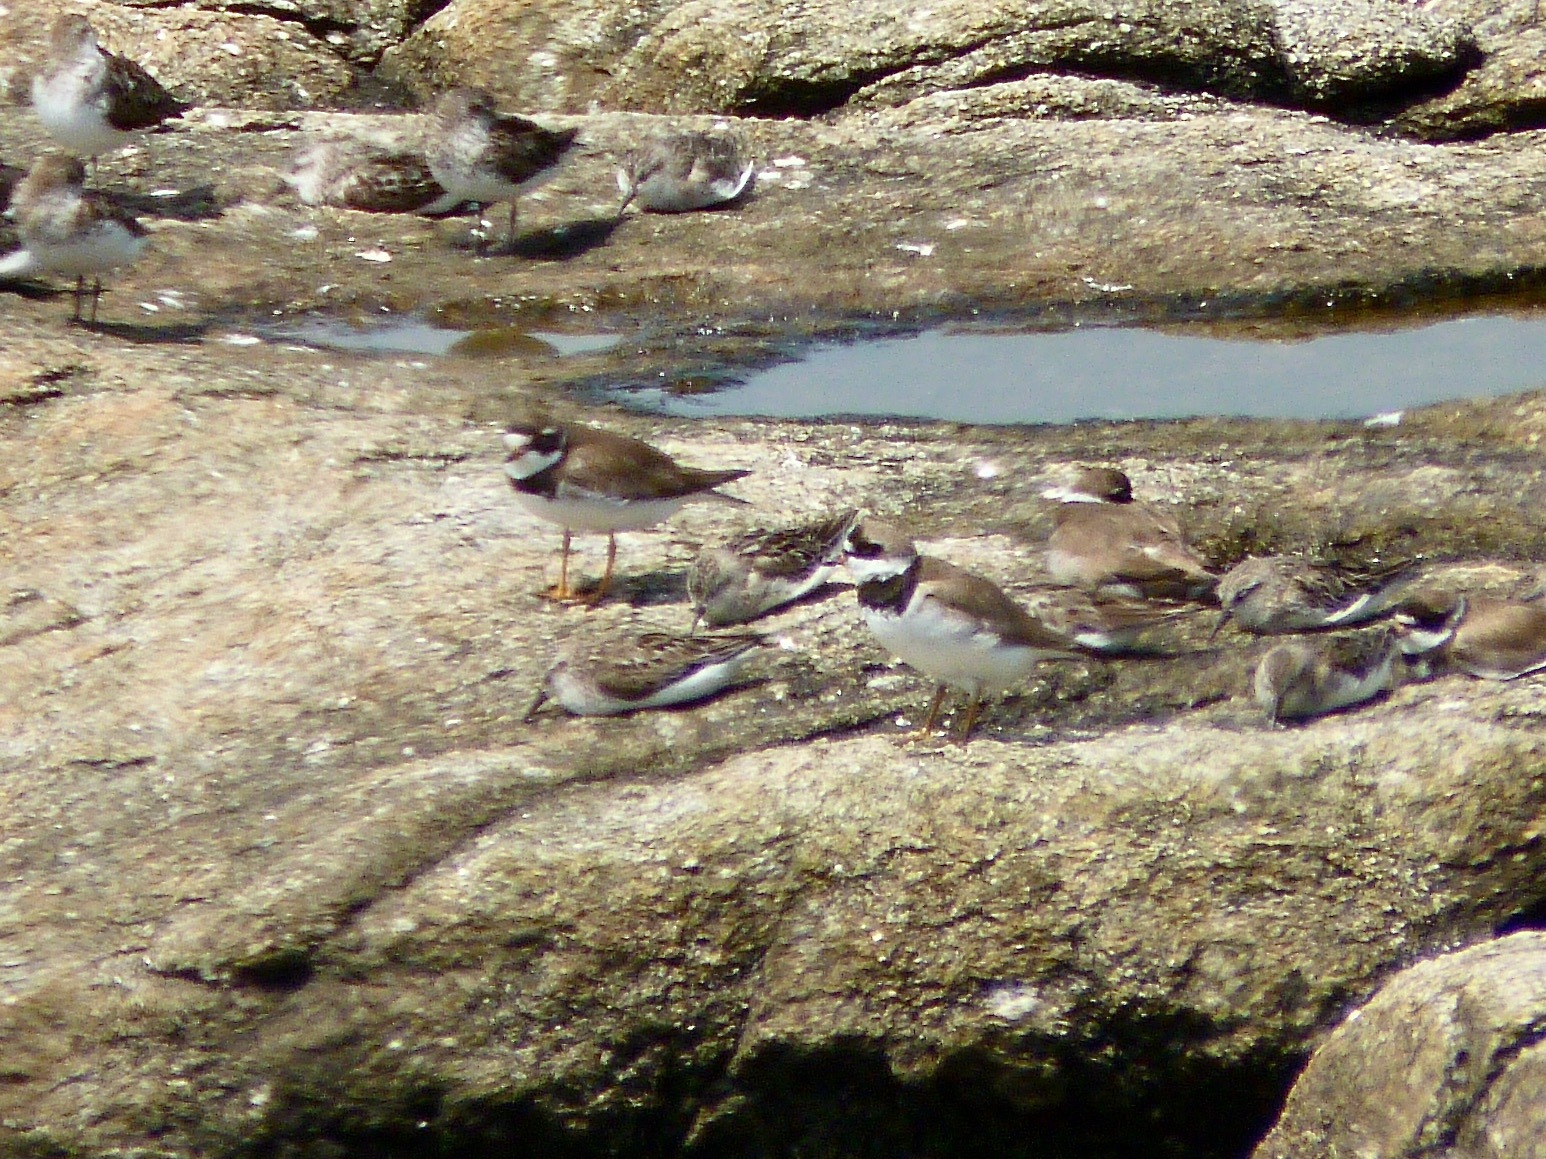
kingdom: Animalia
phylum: Chordata
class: Aves
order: Charadriiformes
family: Charadriidae
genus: Charadrius
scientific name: Charadrius semipalmatus
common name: Semipalmated plover
